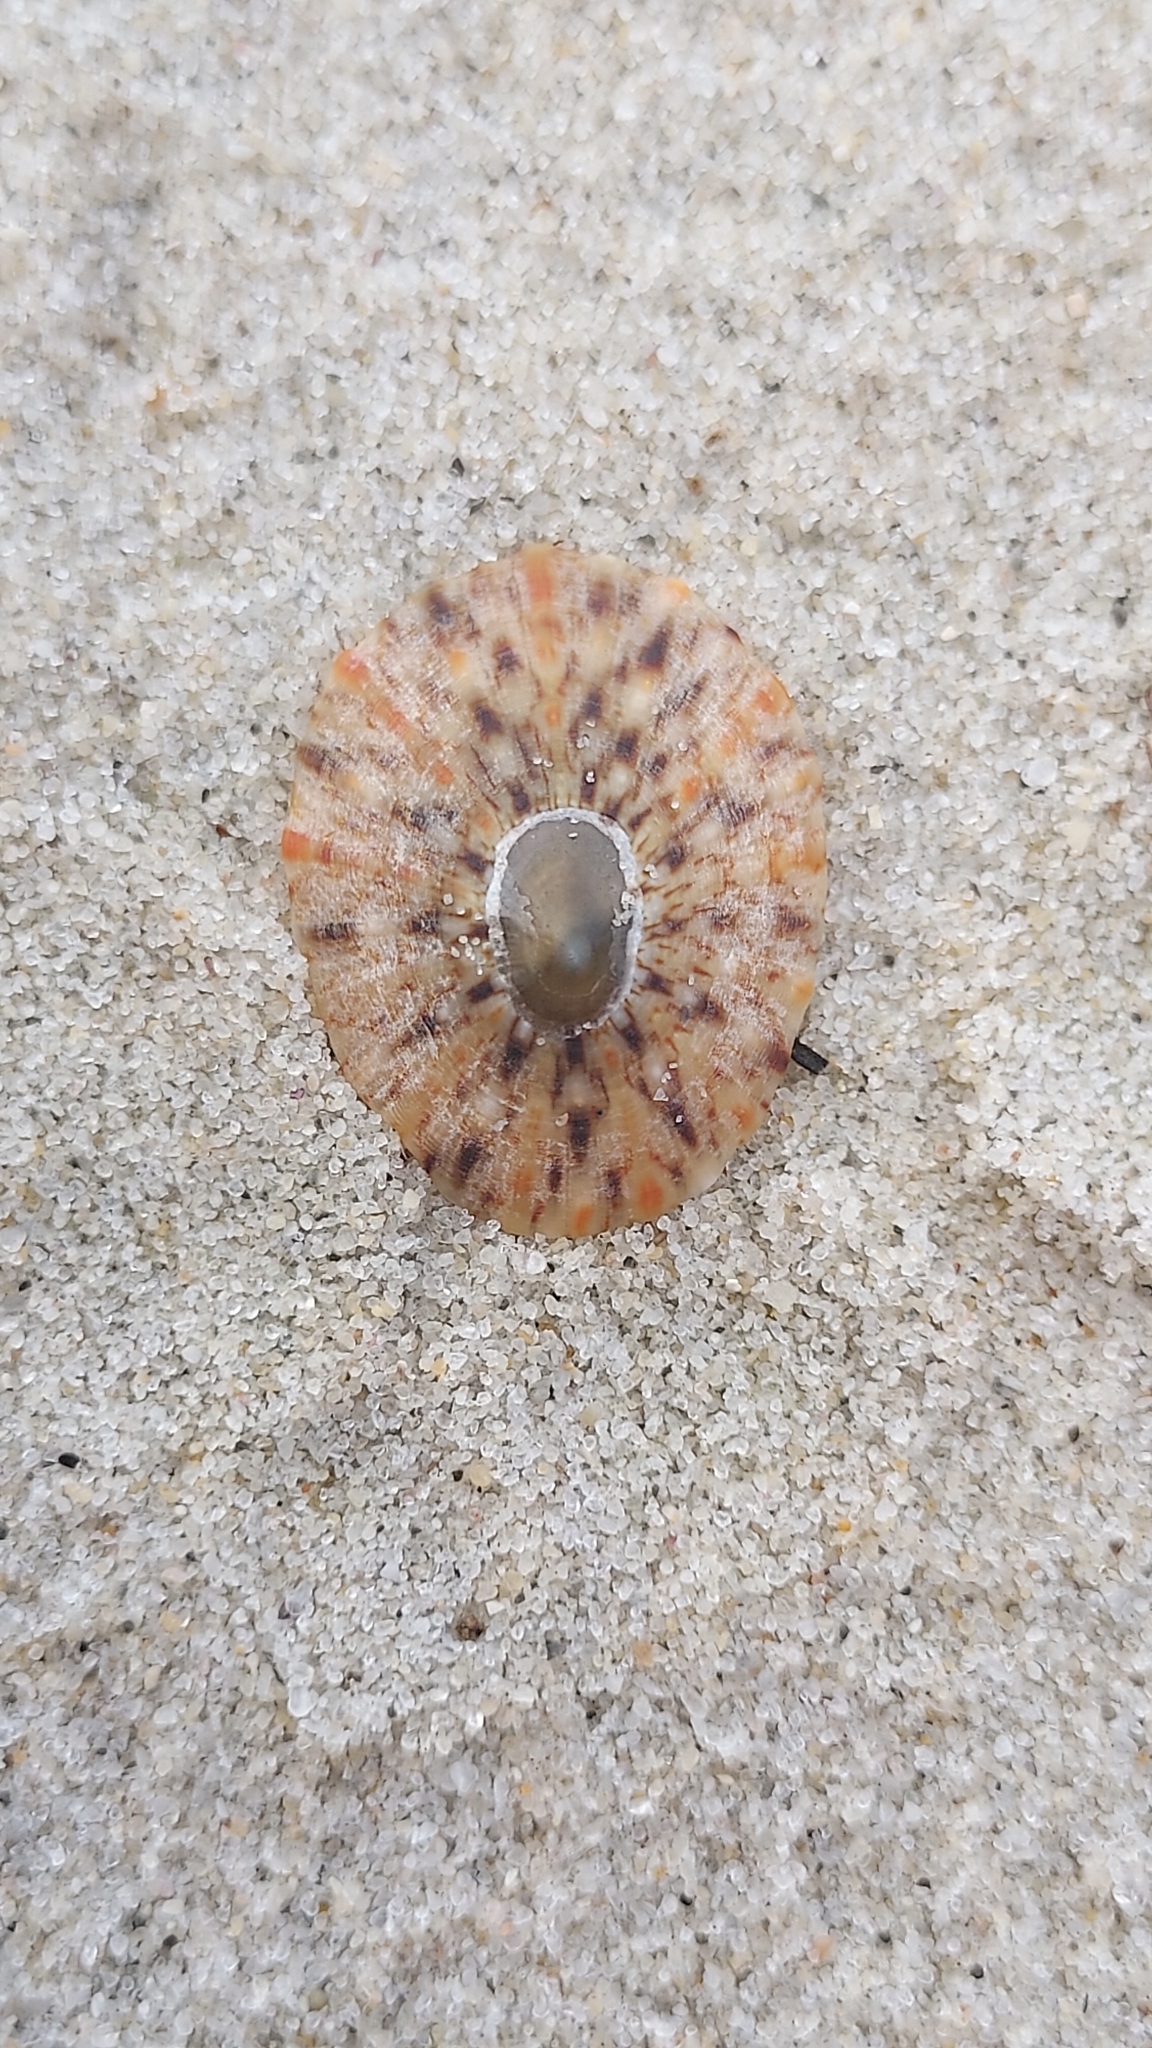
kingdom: Animalia
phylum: Mollusca
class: Gastropoda
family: Nacellidae
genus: Cellana
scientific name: Cellana tramoserica
